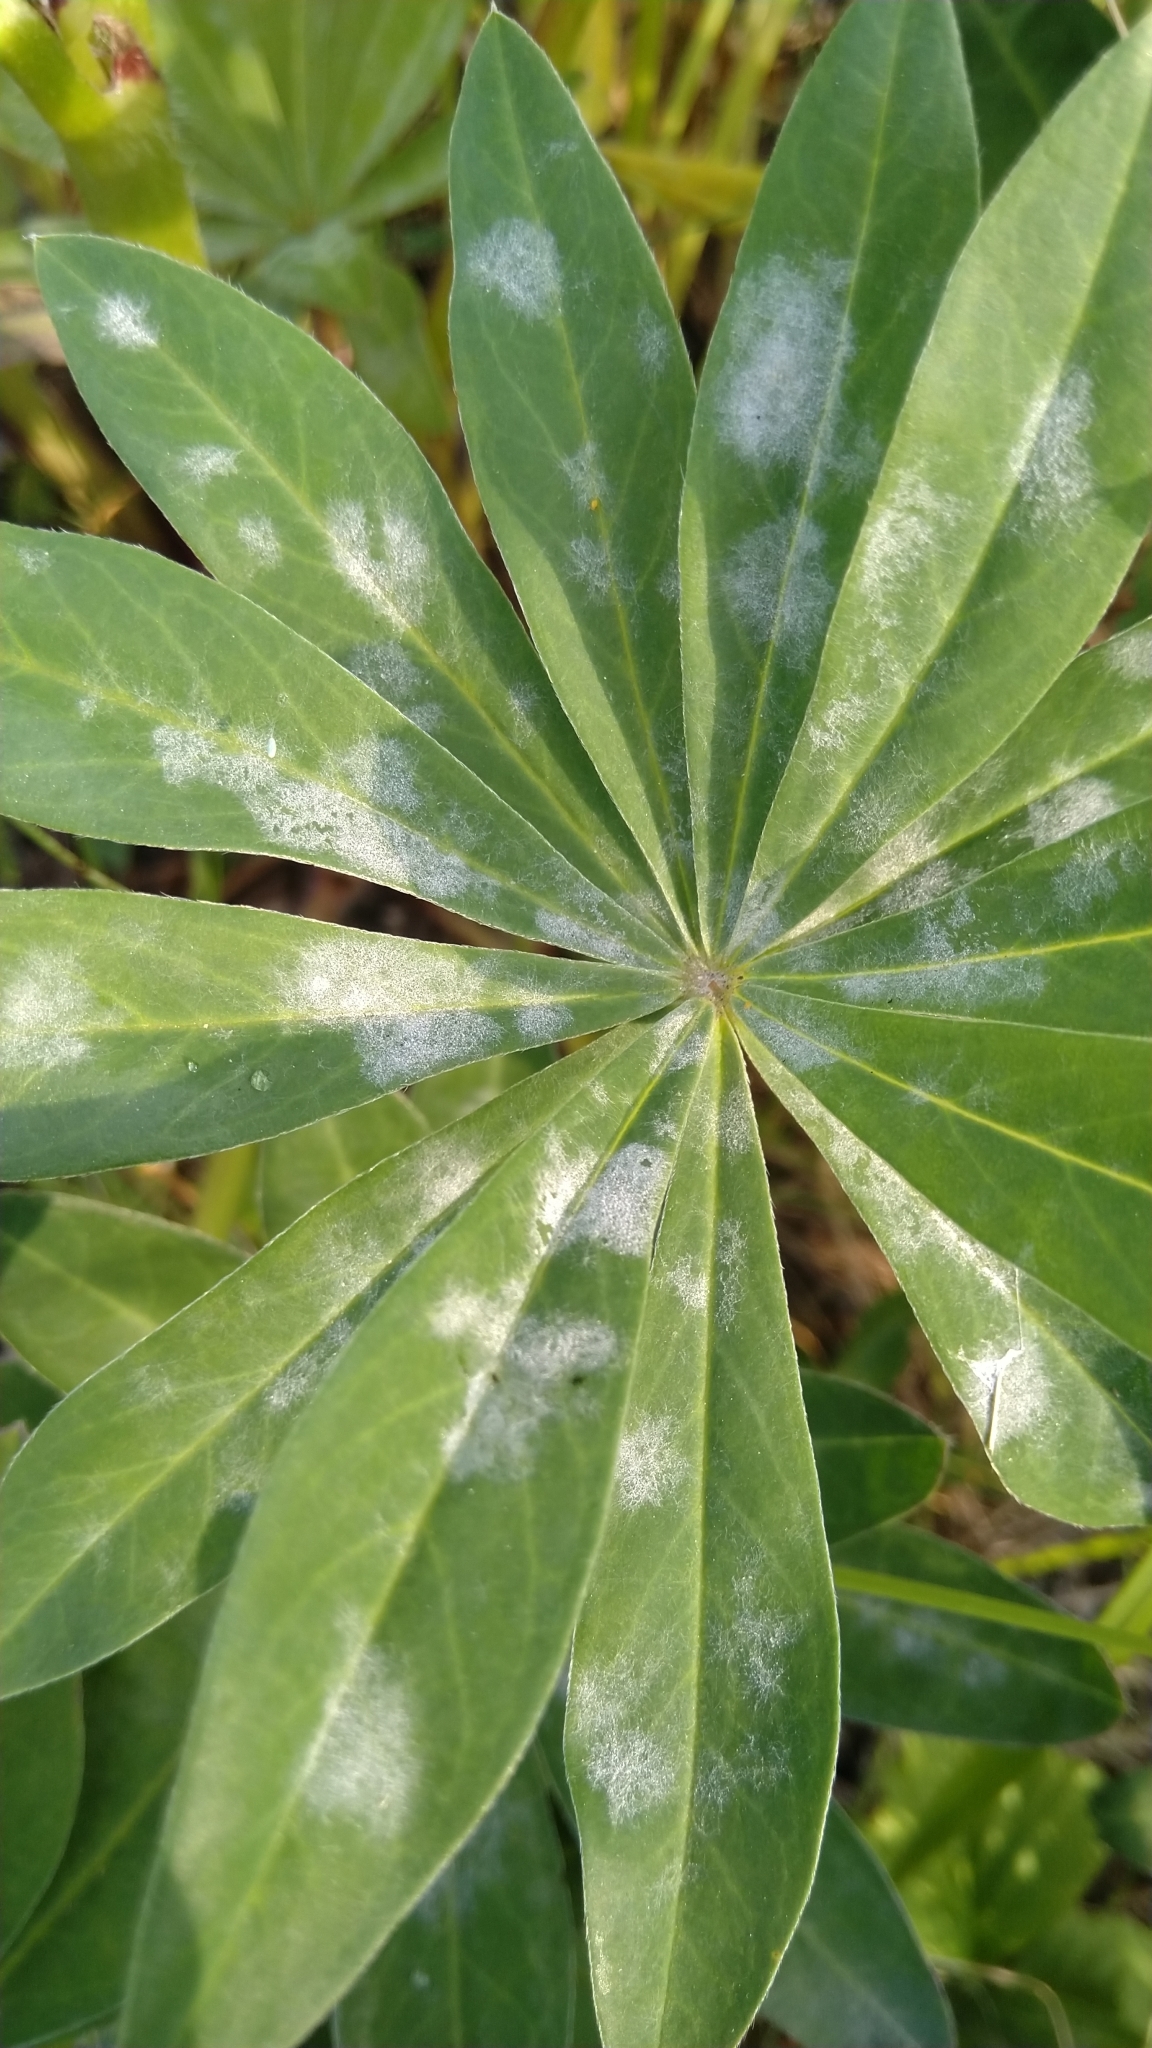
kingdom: Fungi
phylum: Ascomycota
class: Leotiomycetes
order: Helotiales
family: Erysiphaceae
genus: Erysiphe
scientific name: Erysiphe
